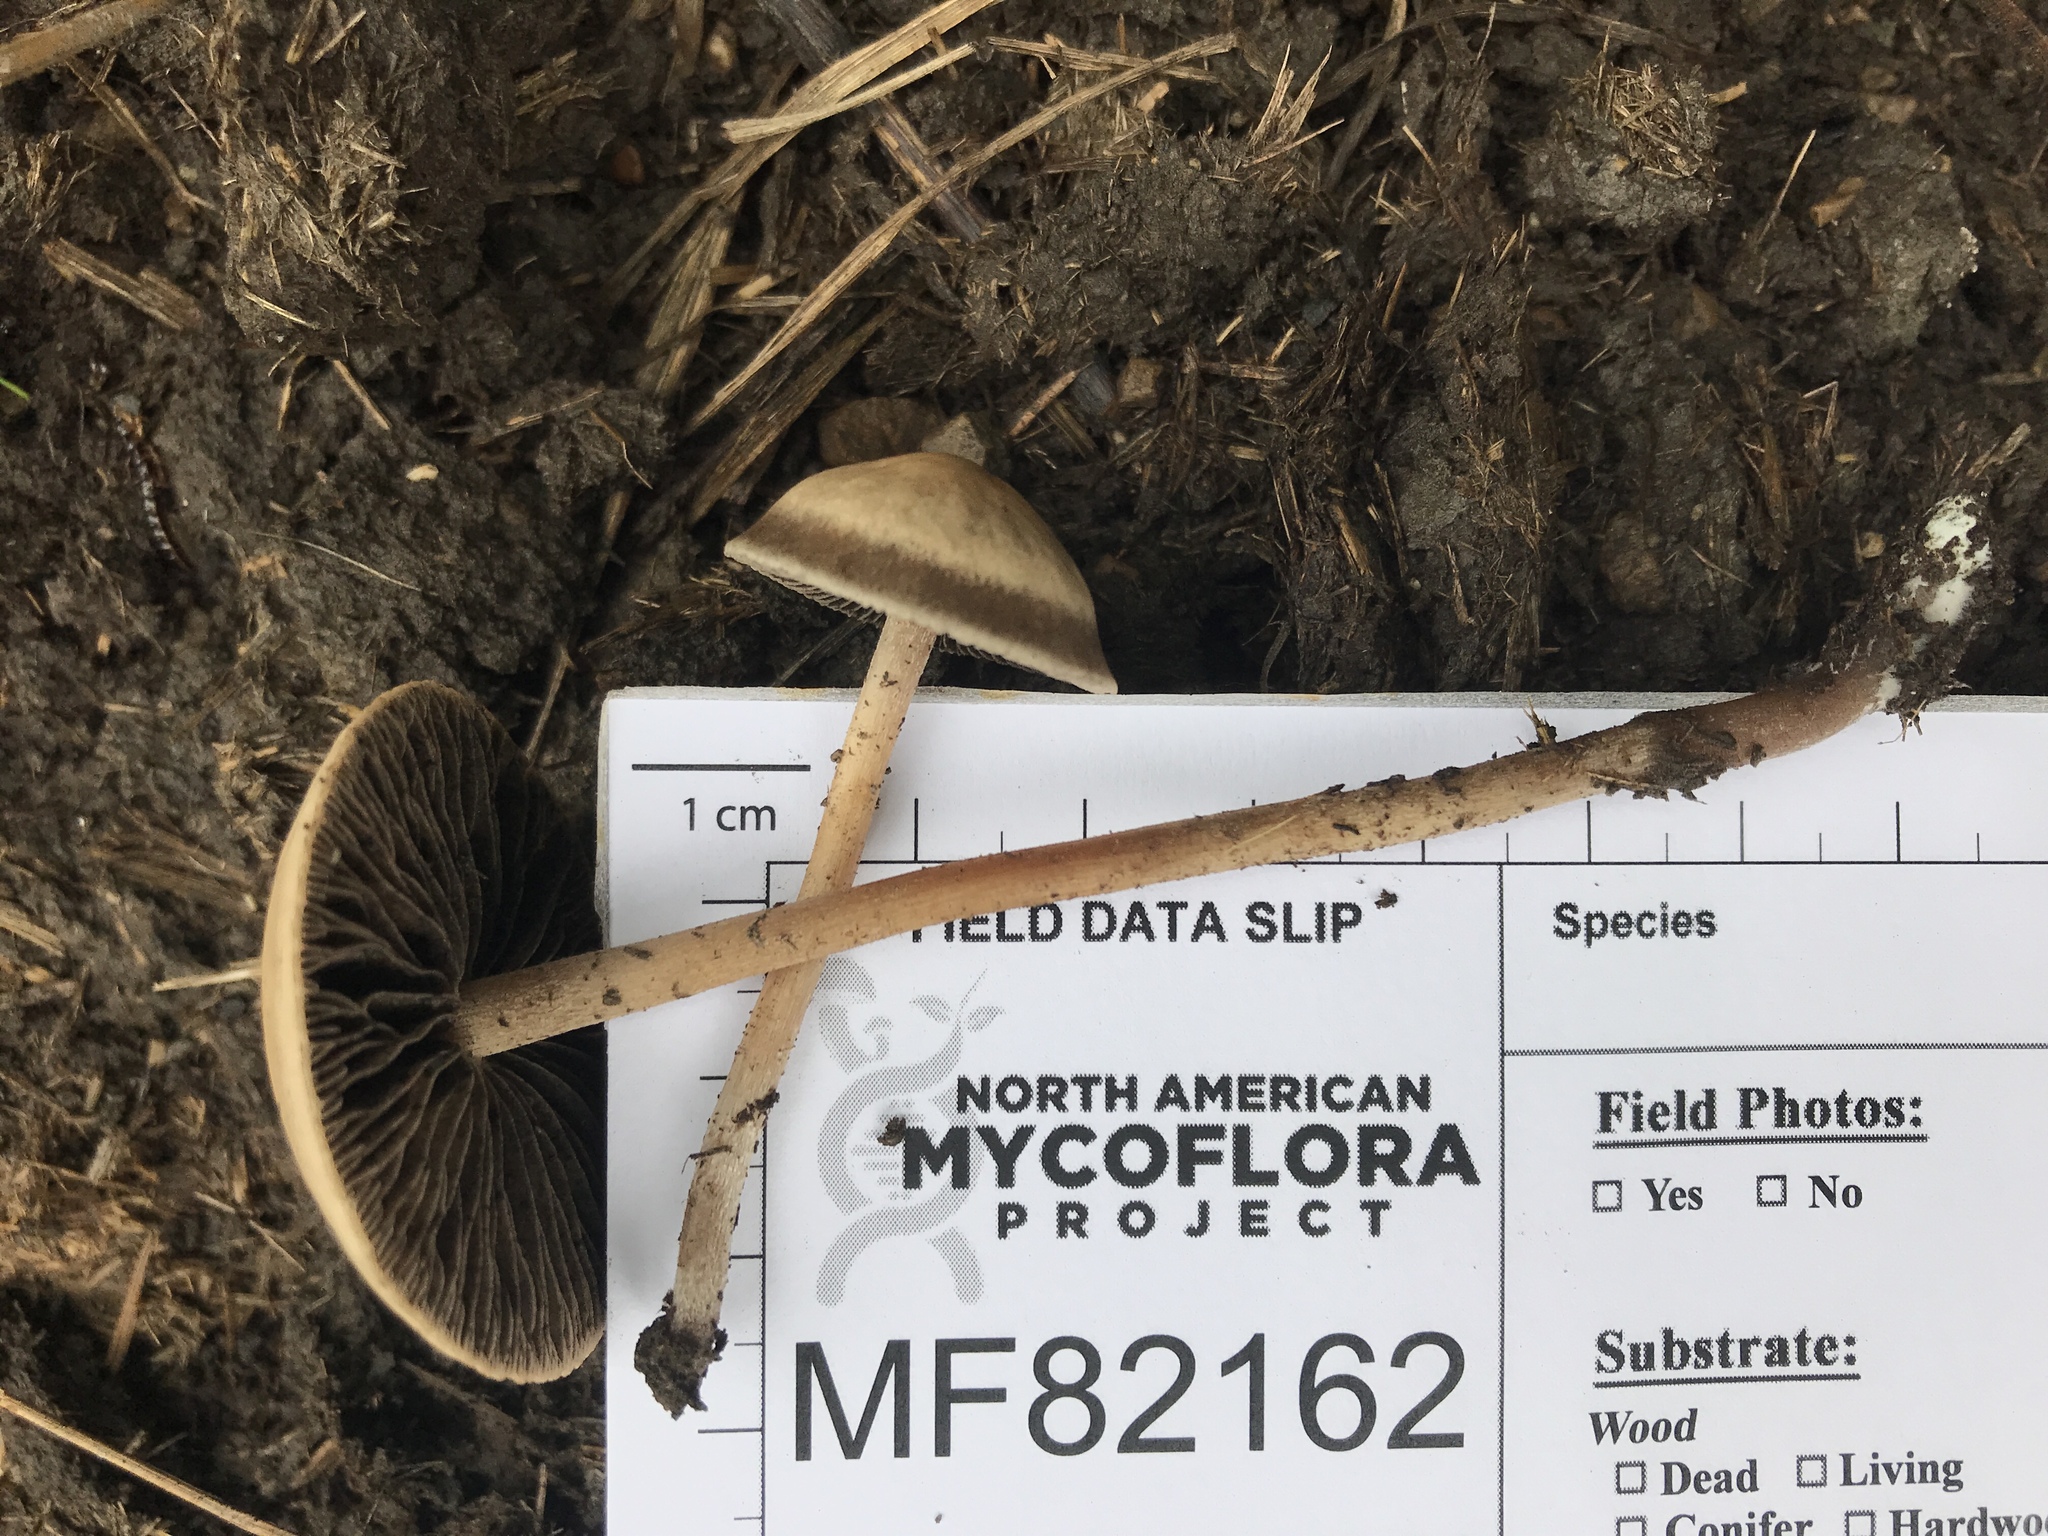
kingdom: Fungi
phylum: Basidiomycota
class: Agaricomycetes
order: Agaricales
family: Bolbitiaceae
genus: Panaeolus
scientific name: Panaeolus cinctulus
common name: Banded mottlegill
